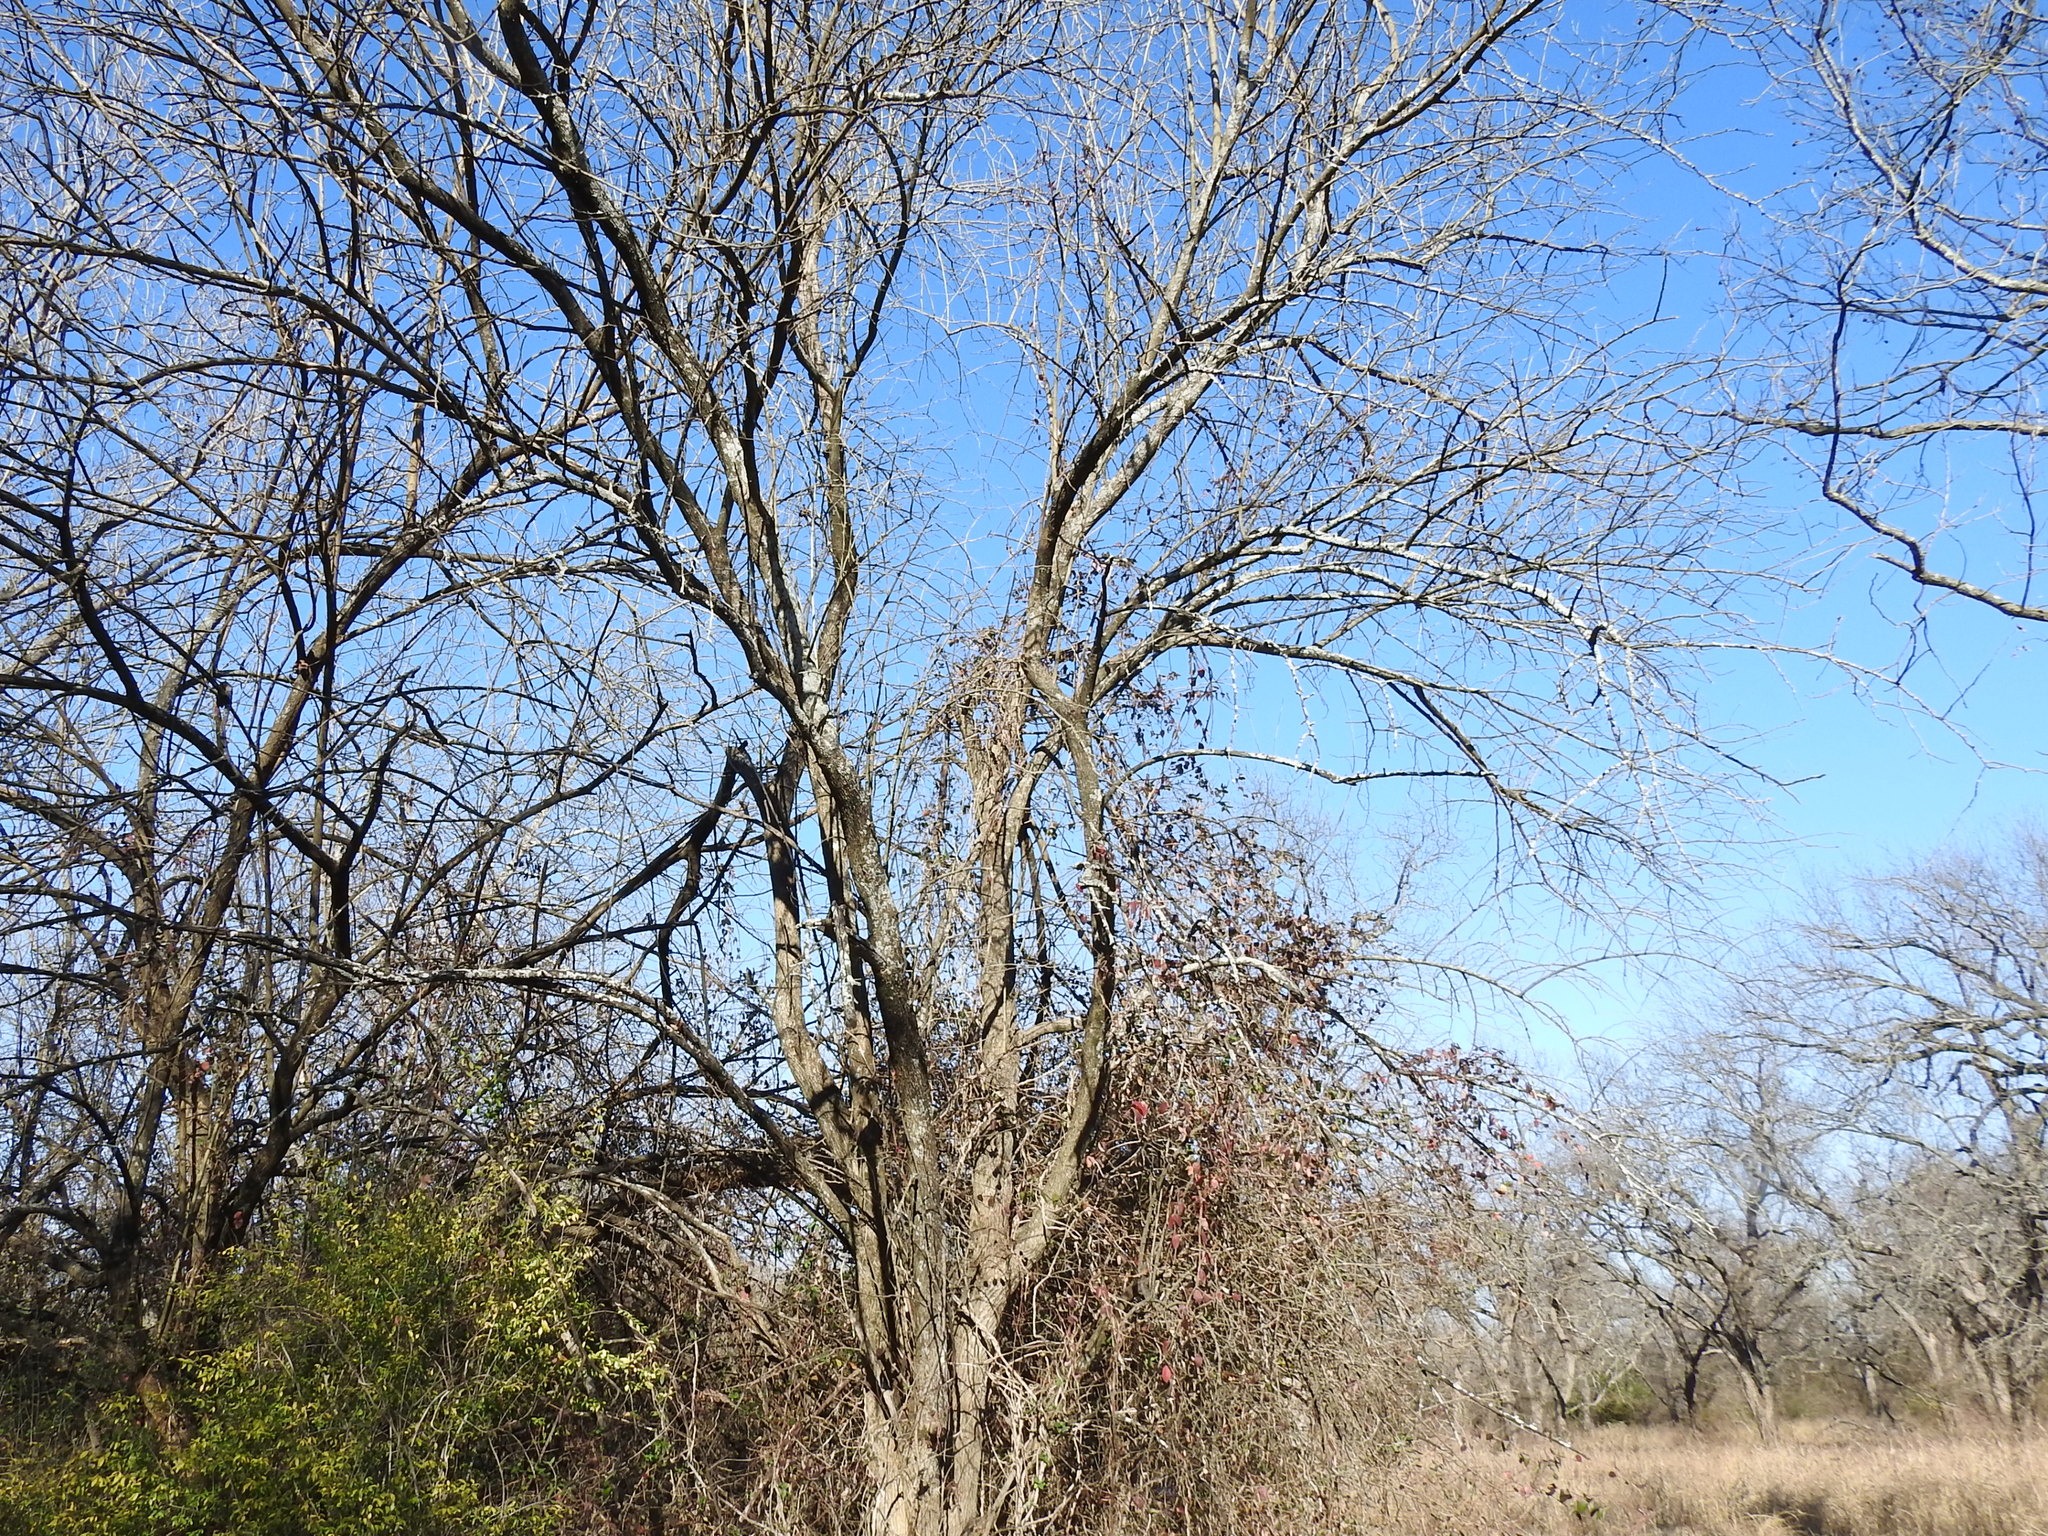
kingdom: Plantae
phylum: Tracheophyta
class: Magnoliopsida
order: Rosales
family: Moraceae
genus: Maclura
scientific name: Maclura pomifera
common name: Osage-orange
